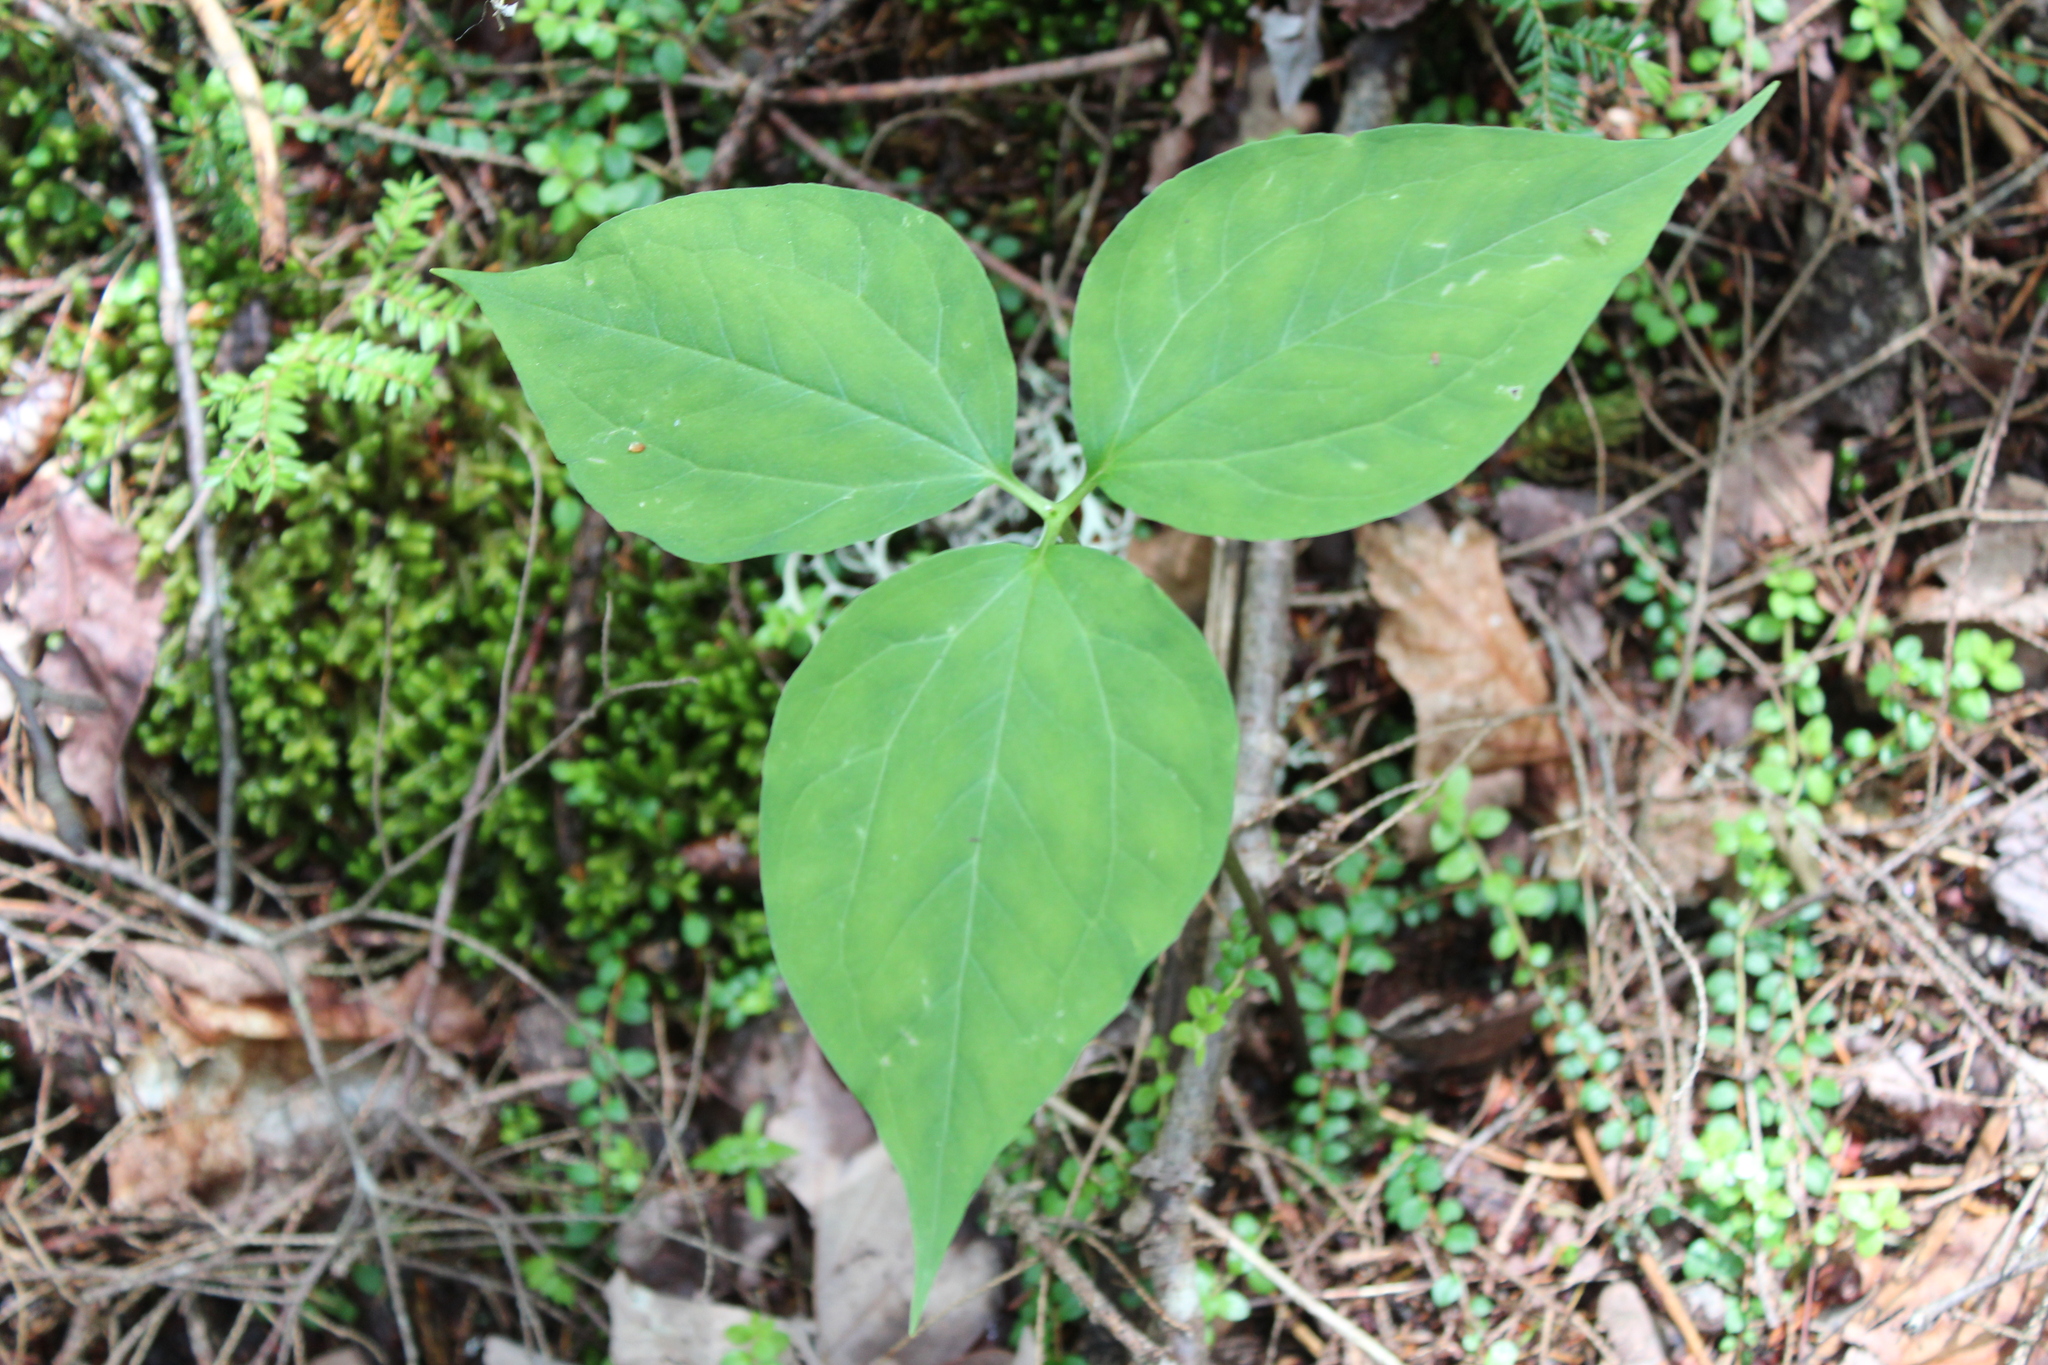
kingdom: Plantae
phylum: Tracheophyta
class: Liliopsida
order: Liliales
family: Melanthiaceae
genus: Trillium
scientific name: Trillium undulatum
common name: Paint trillium
